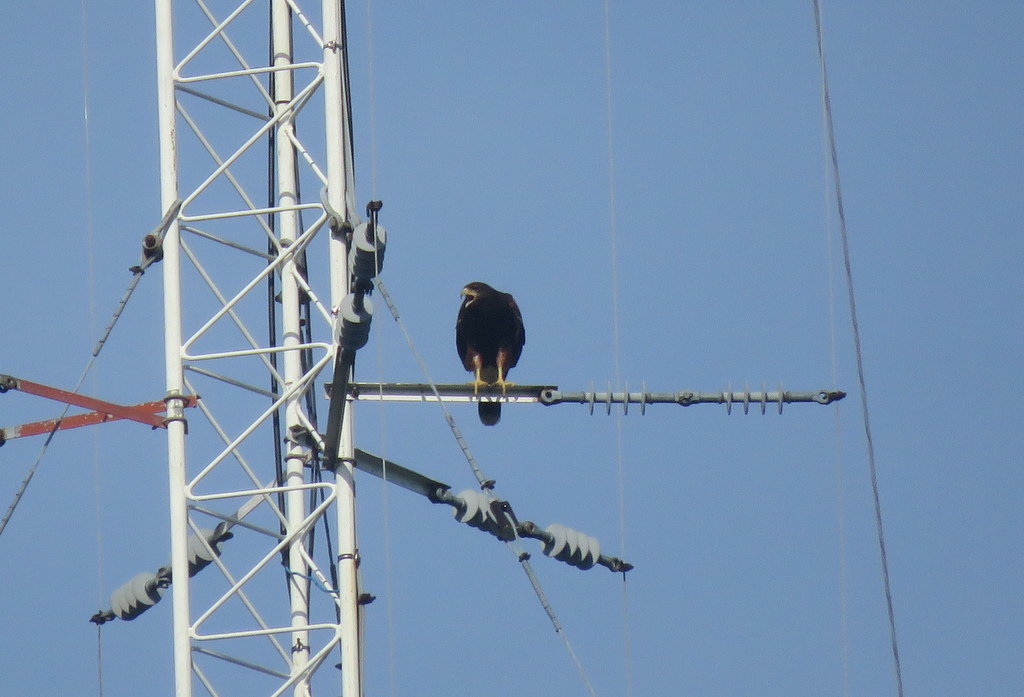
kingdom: Animalia
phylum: Chordata
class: Aves
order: Accipitriformes
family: Accipitridae
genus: Parabuteo
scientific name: Parabuteo unicinctus
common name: Harris's hawk
